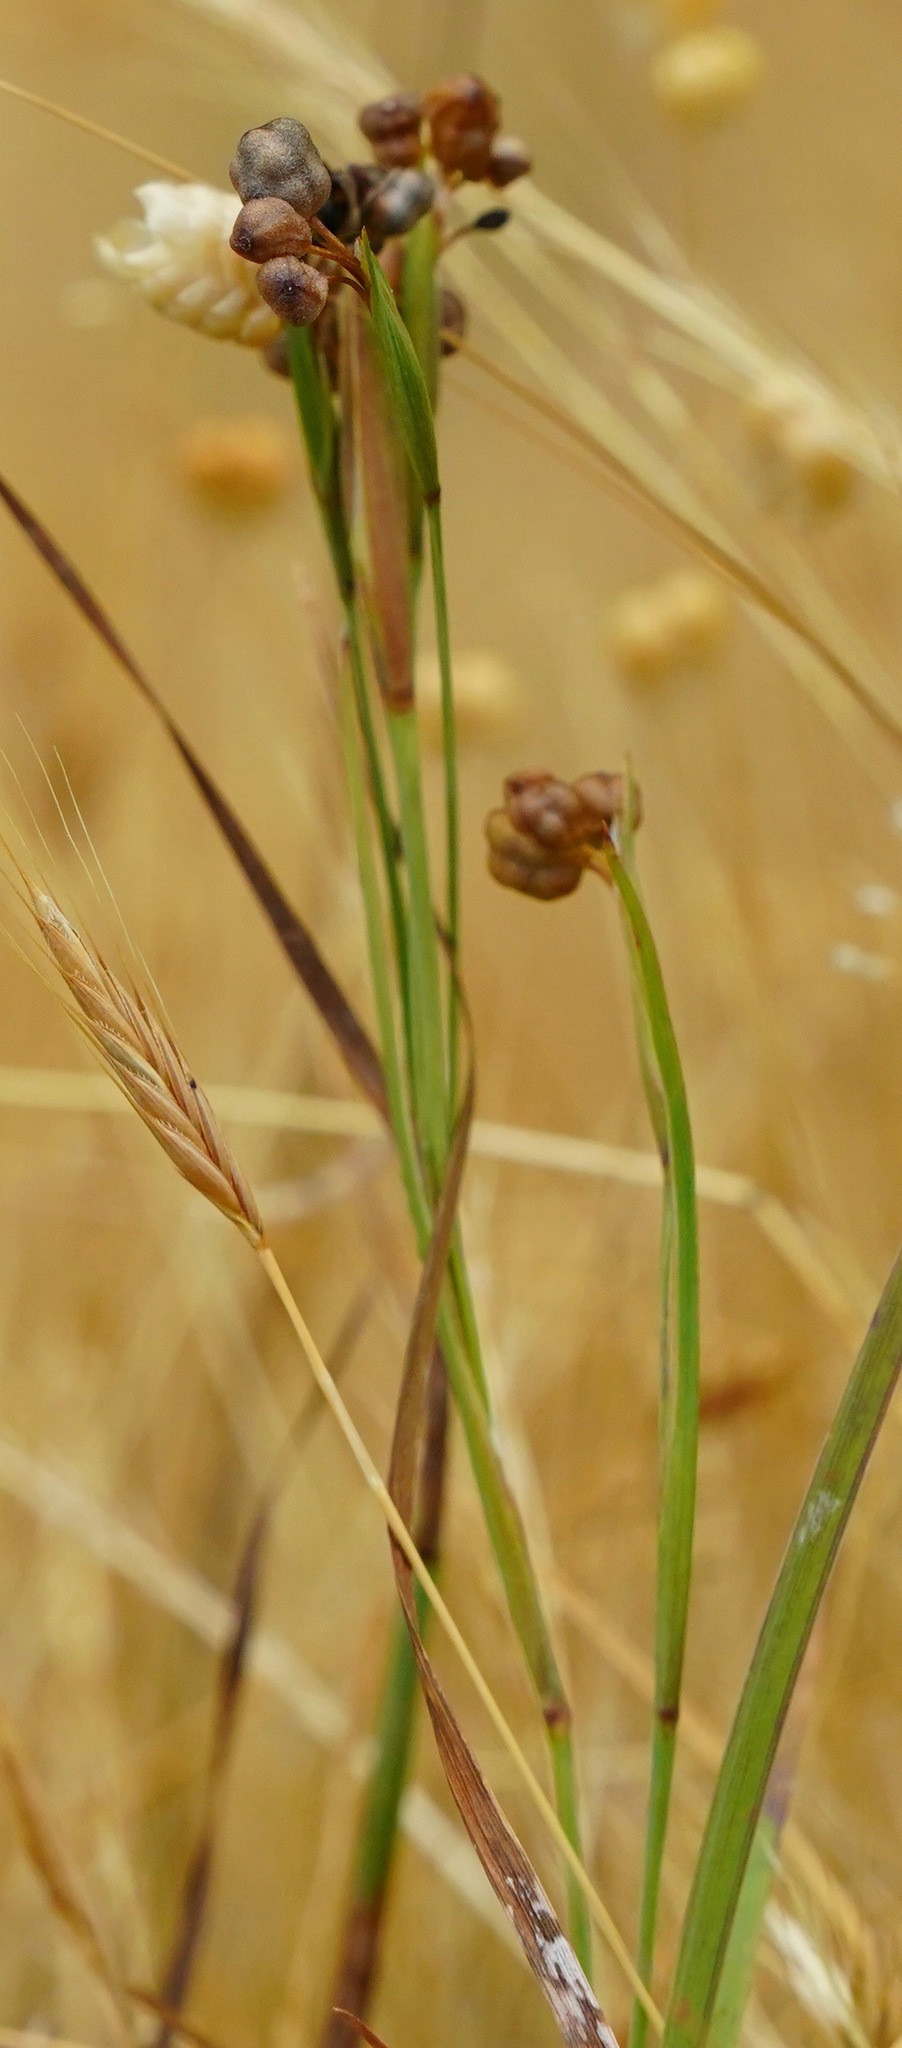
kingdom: Plantae
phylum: Tracheophyta
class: Liliopsida
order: Asparagales
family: Iridaceae
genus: Sisyrinchium
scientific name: Sisyrinchium bellum
